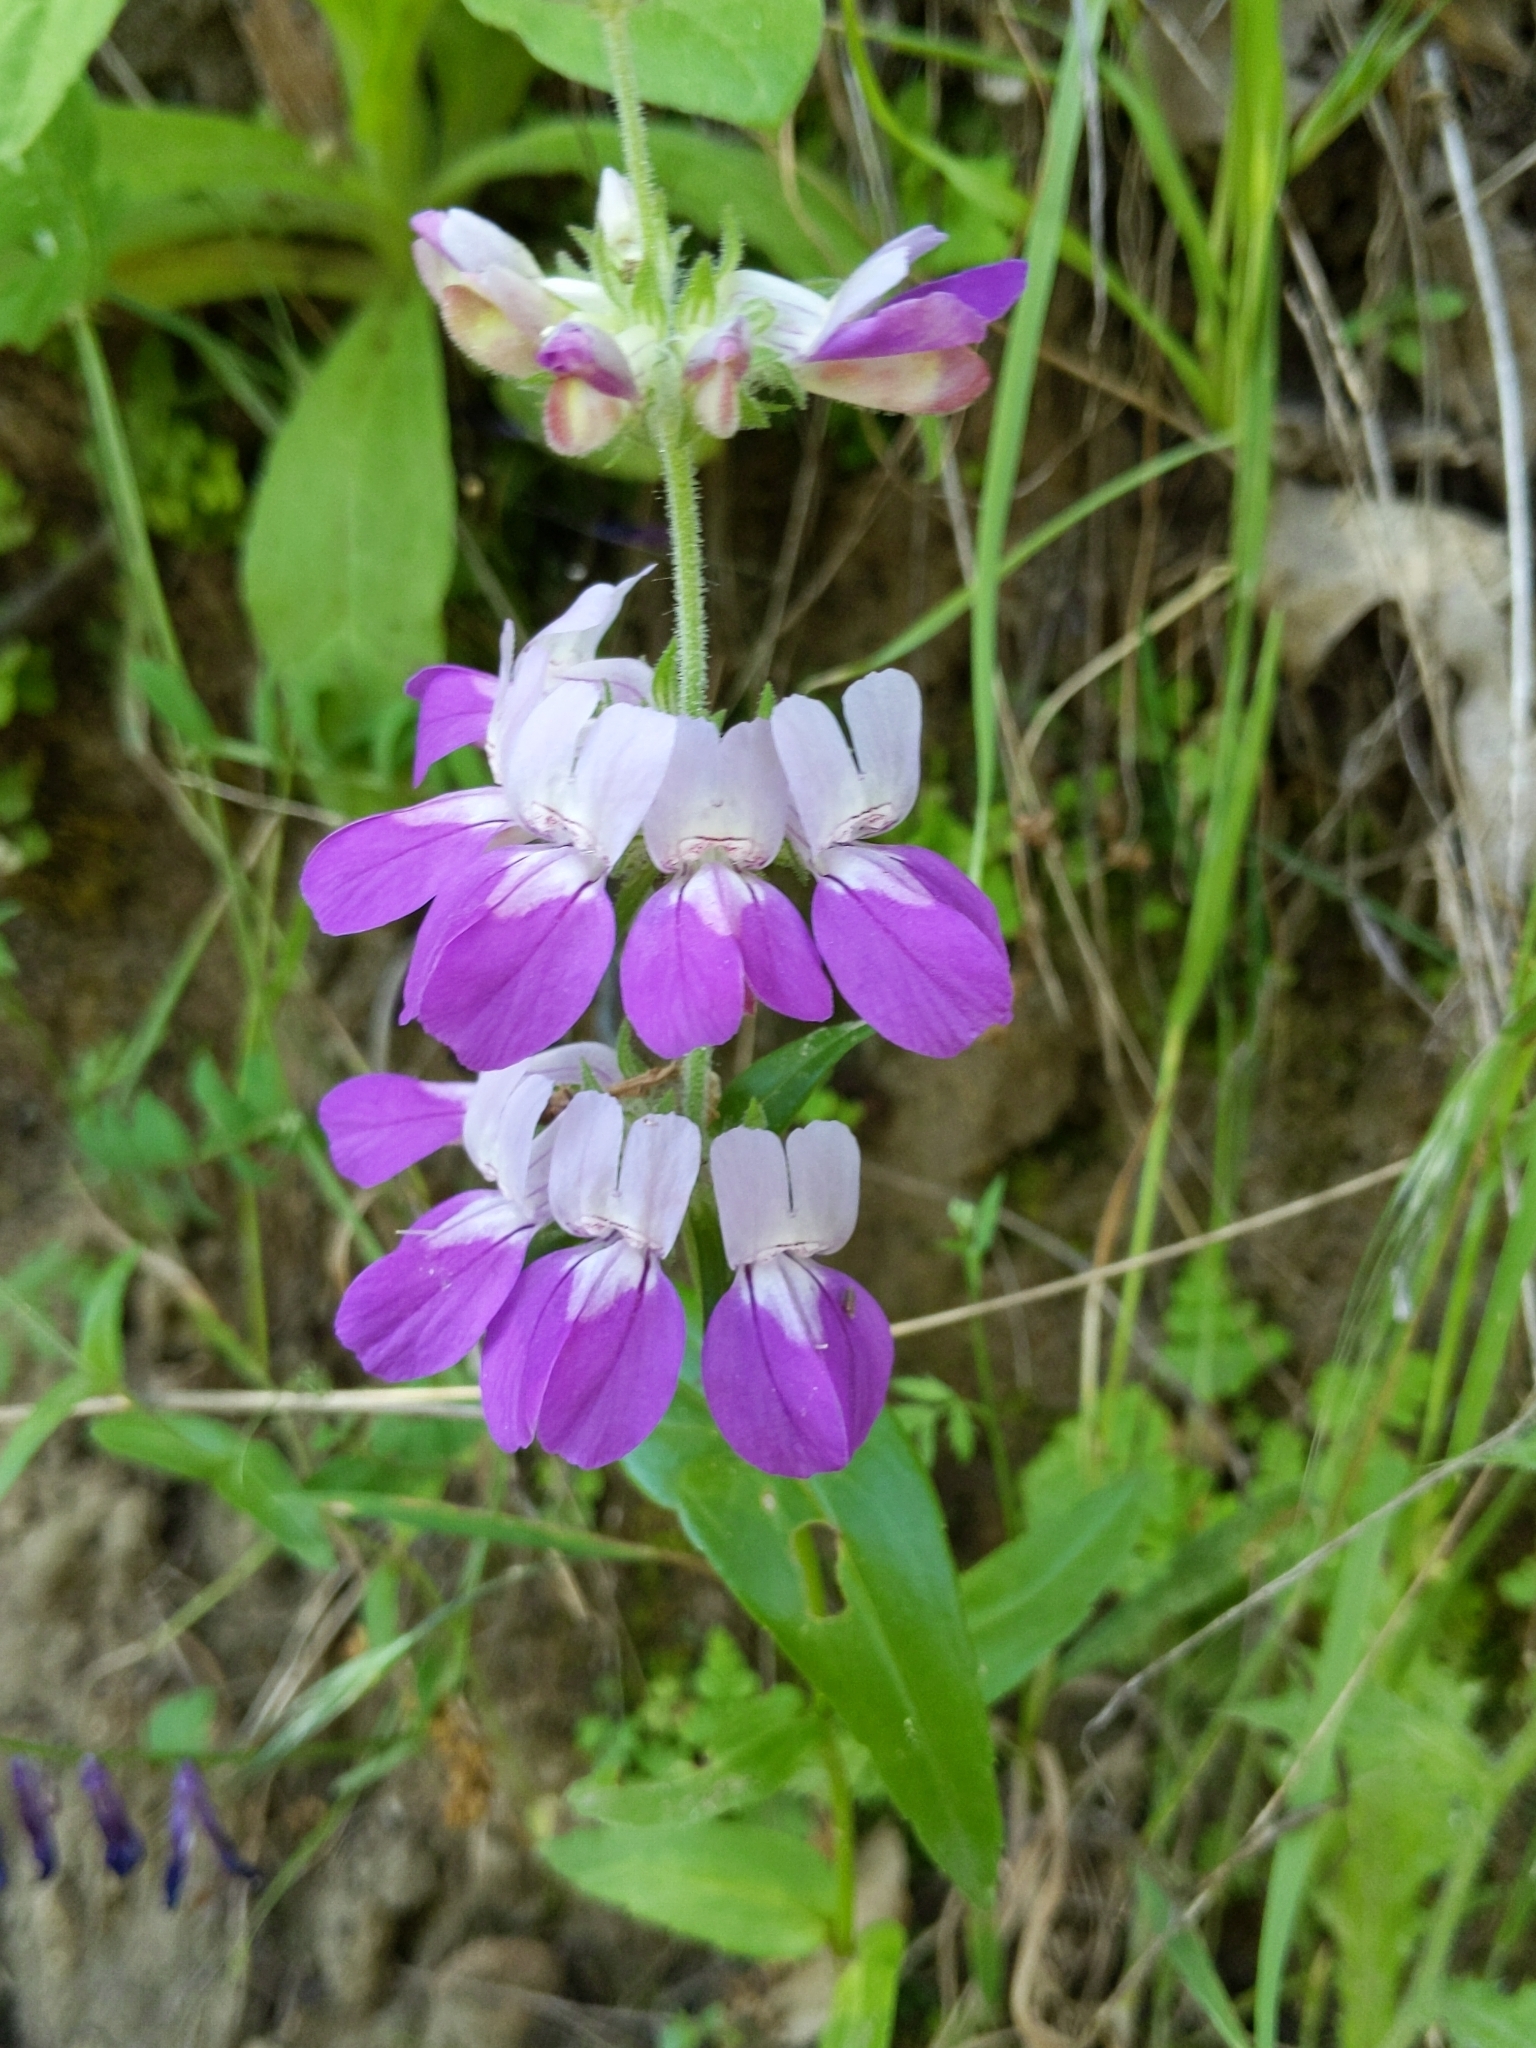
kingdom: Plantae
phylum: Tracheophyta
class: Magnoliopsida
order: Lamiales
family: Plantaginaceae
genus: Collinsia
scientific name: Collinsia heterophylla
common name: Chinese-houses
